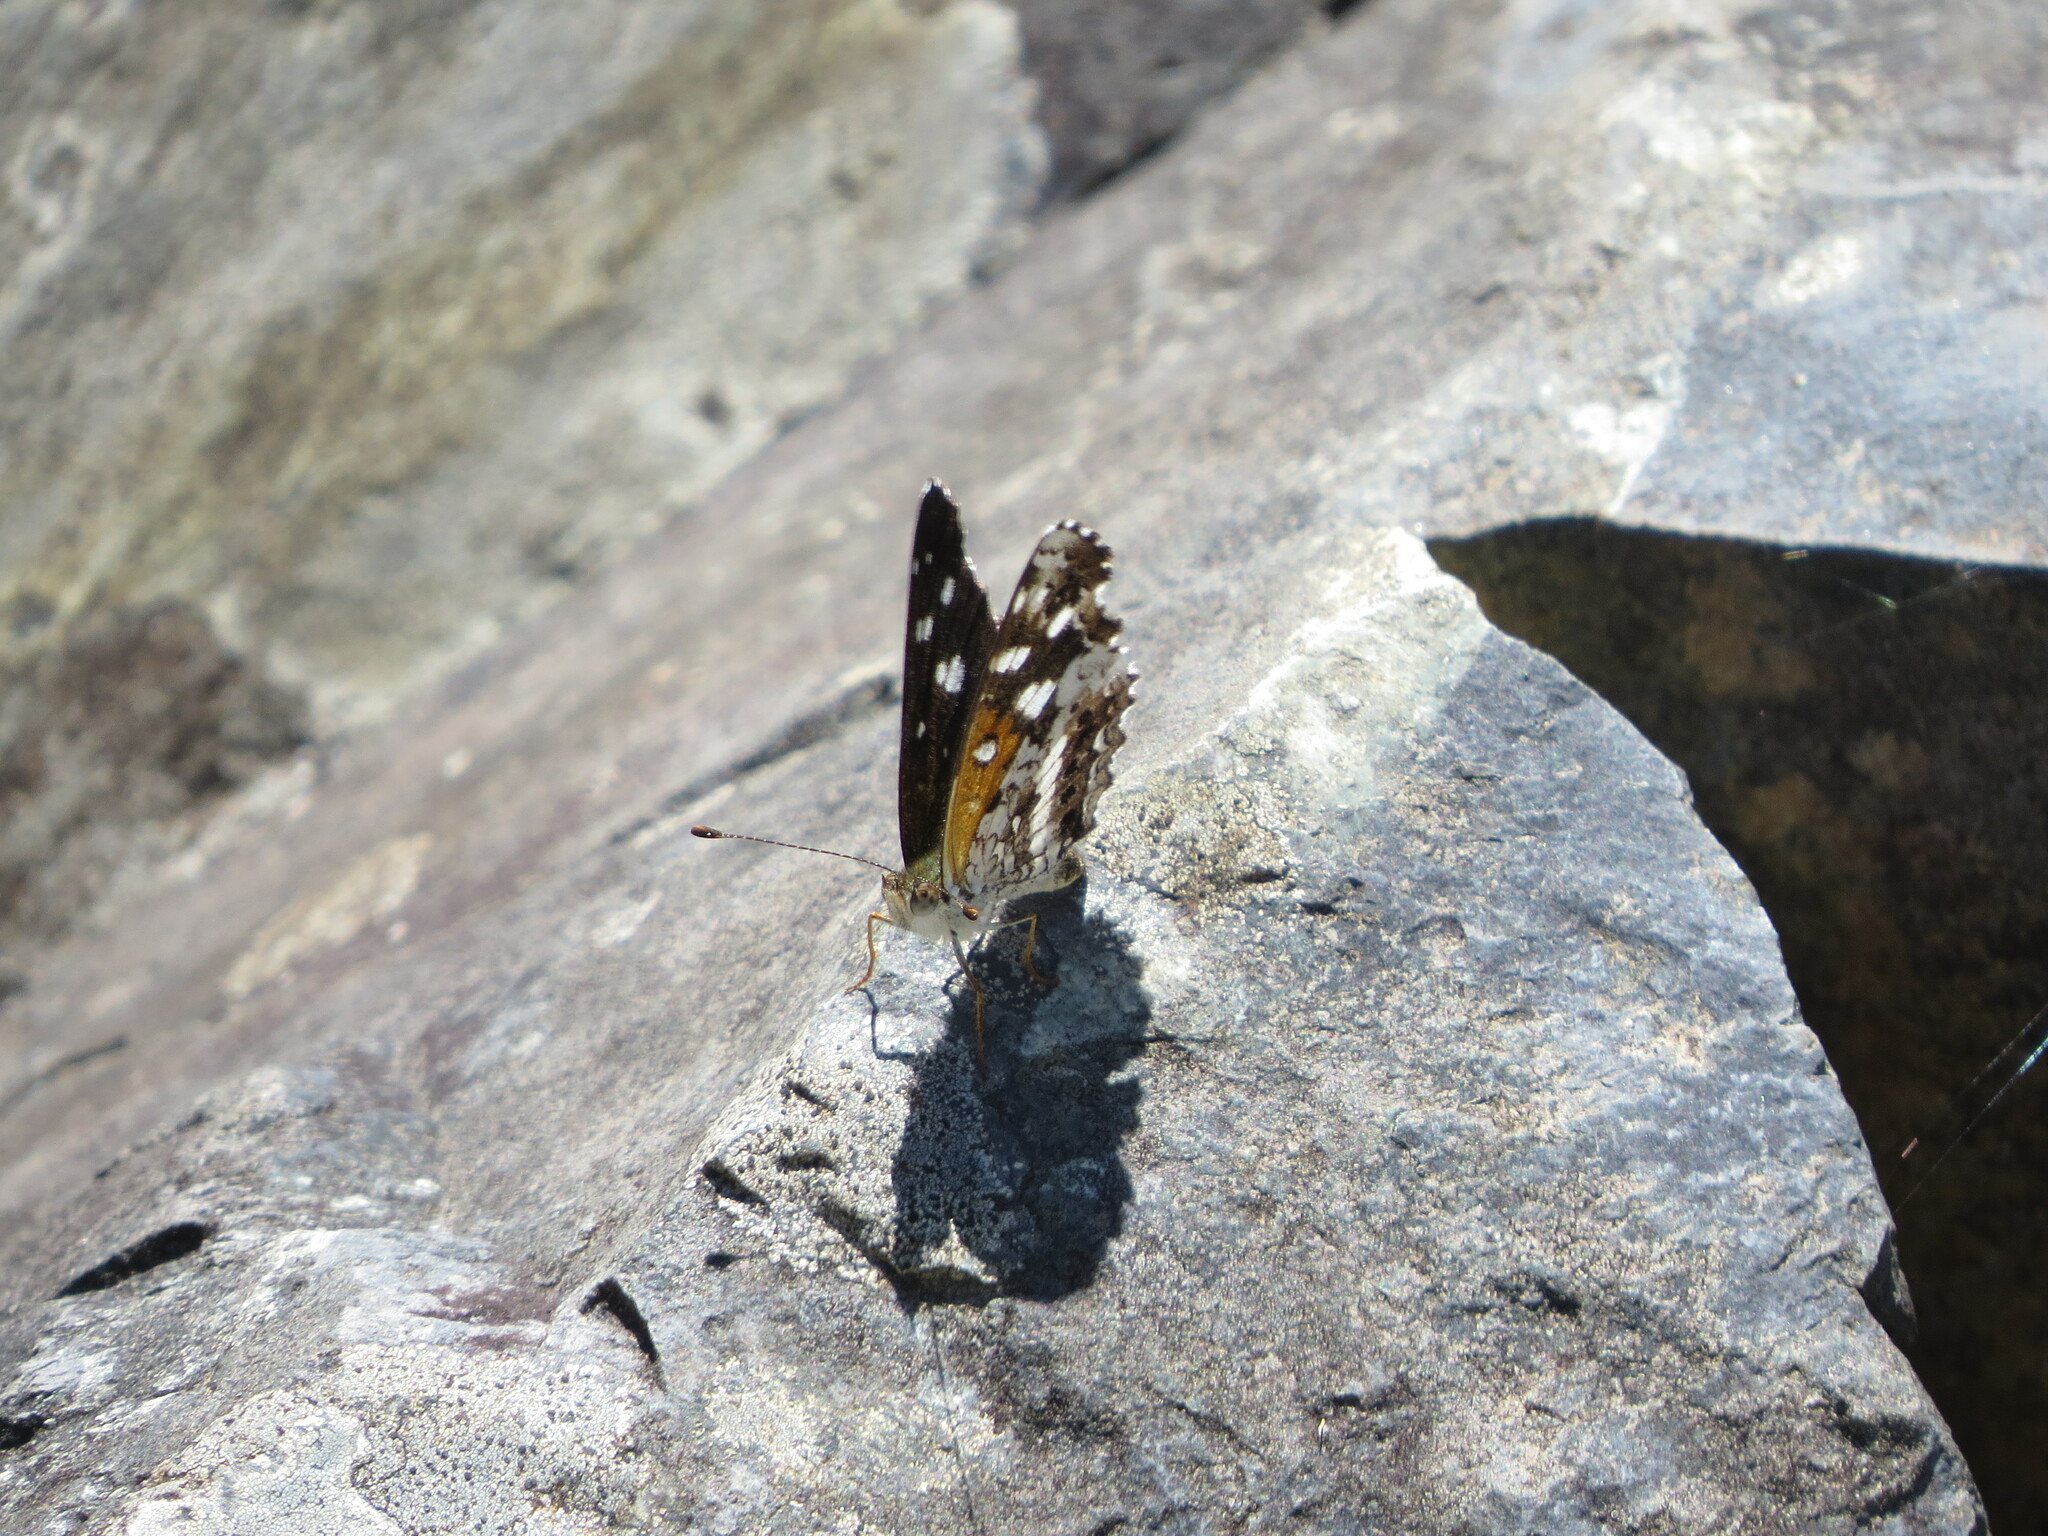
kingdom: Animalia
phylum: Arthropoda
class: Insecta
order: Lepidoptera
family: Nymphalidae
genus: Ortilia
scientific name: Ortilia ithra
